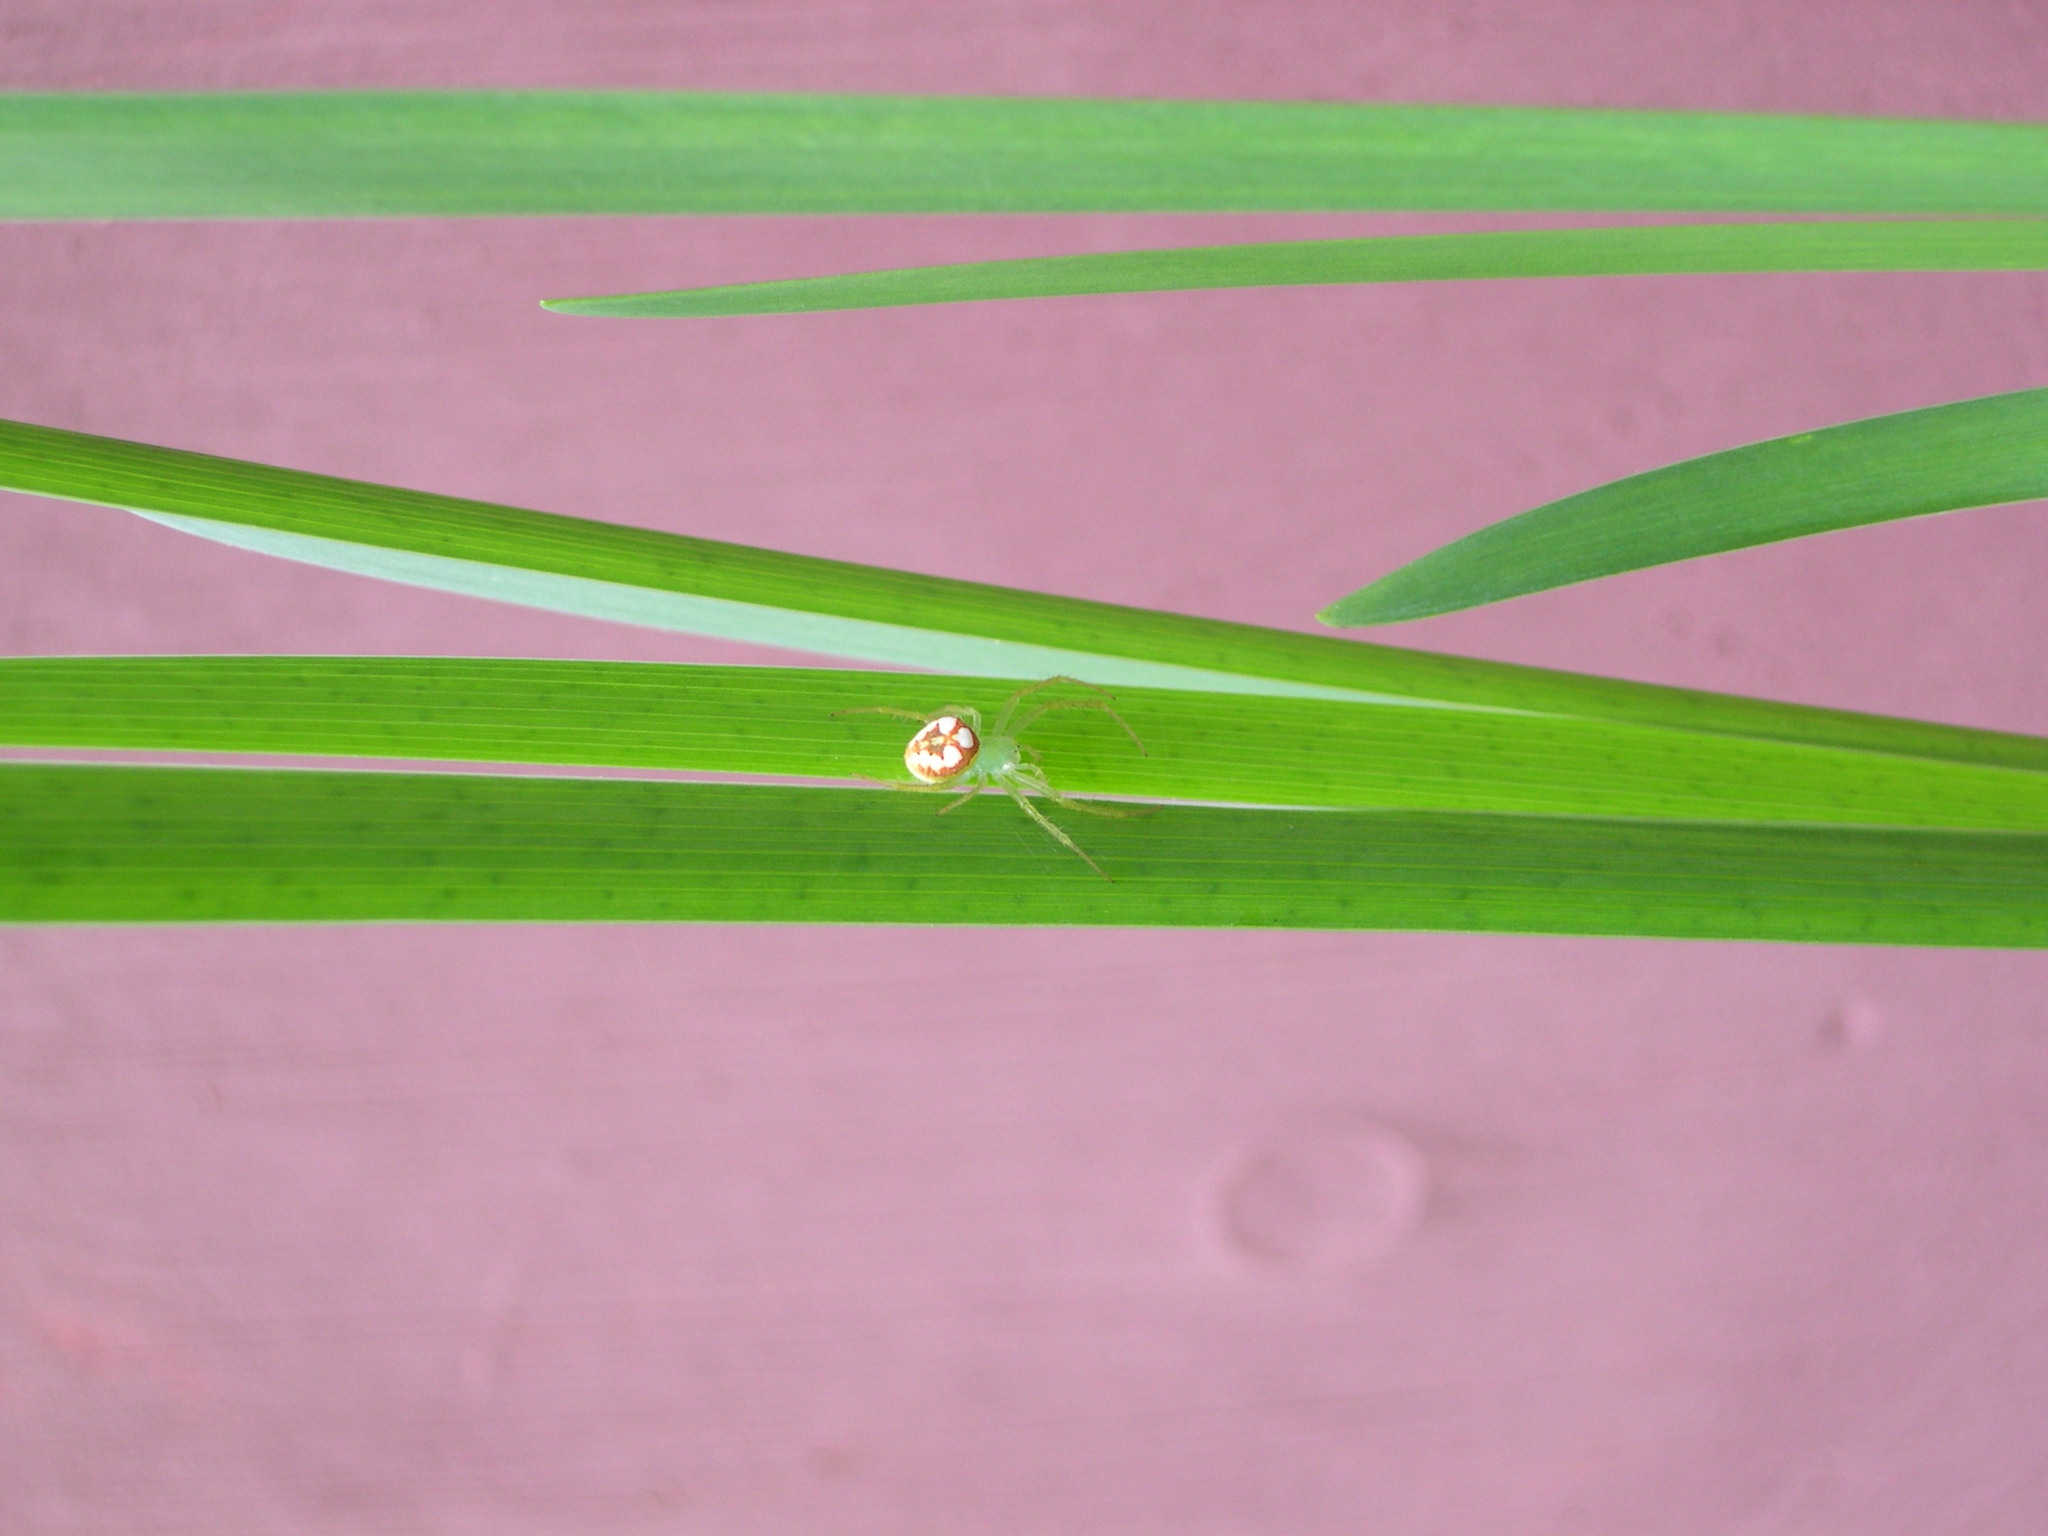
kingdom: Animalia
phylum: Arthropoda
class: Arachnida
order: Araneae
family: Araneidae
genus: Araneus
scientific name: Araneus guttulatus
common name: Red-backed orbweaver
